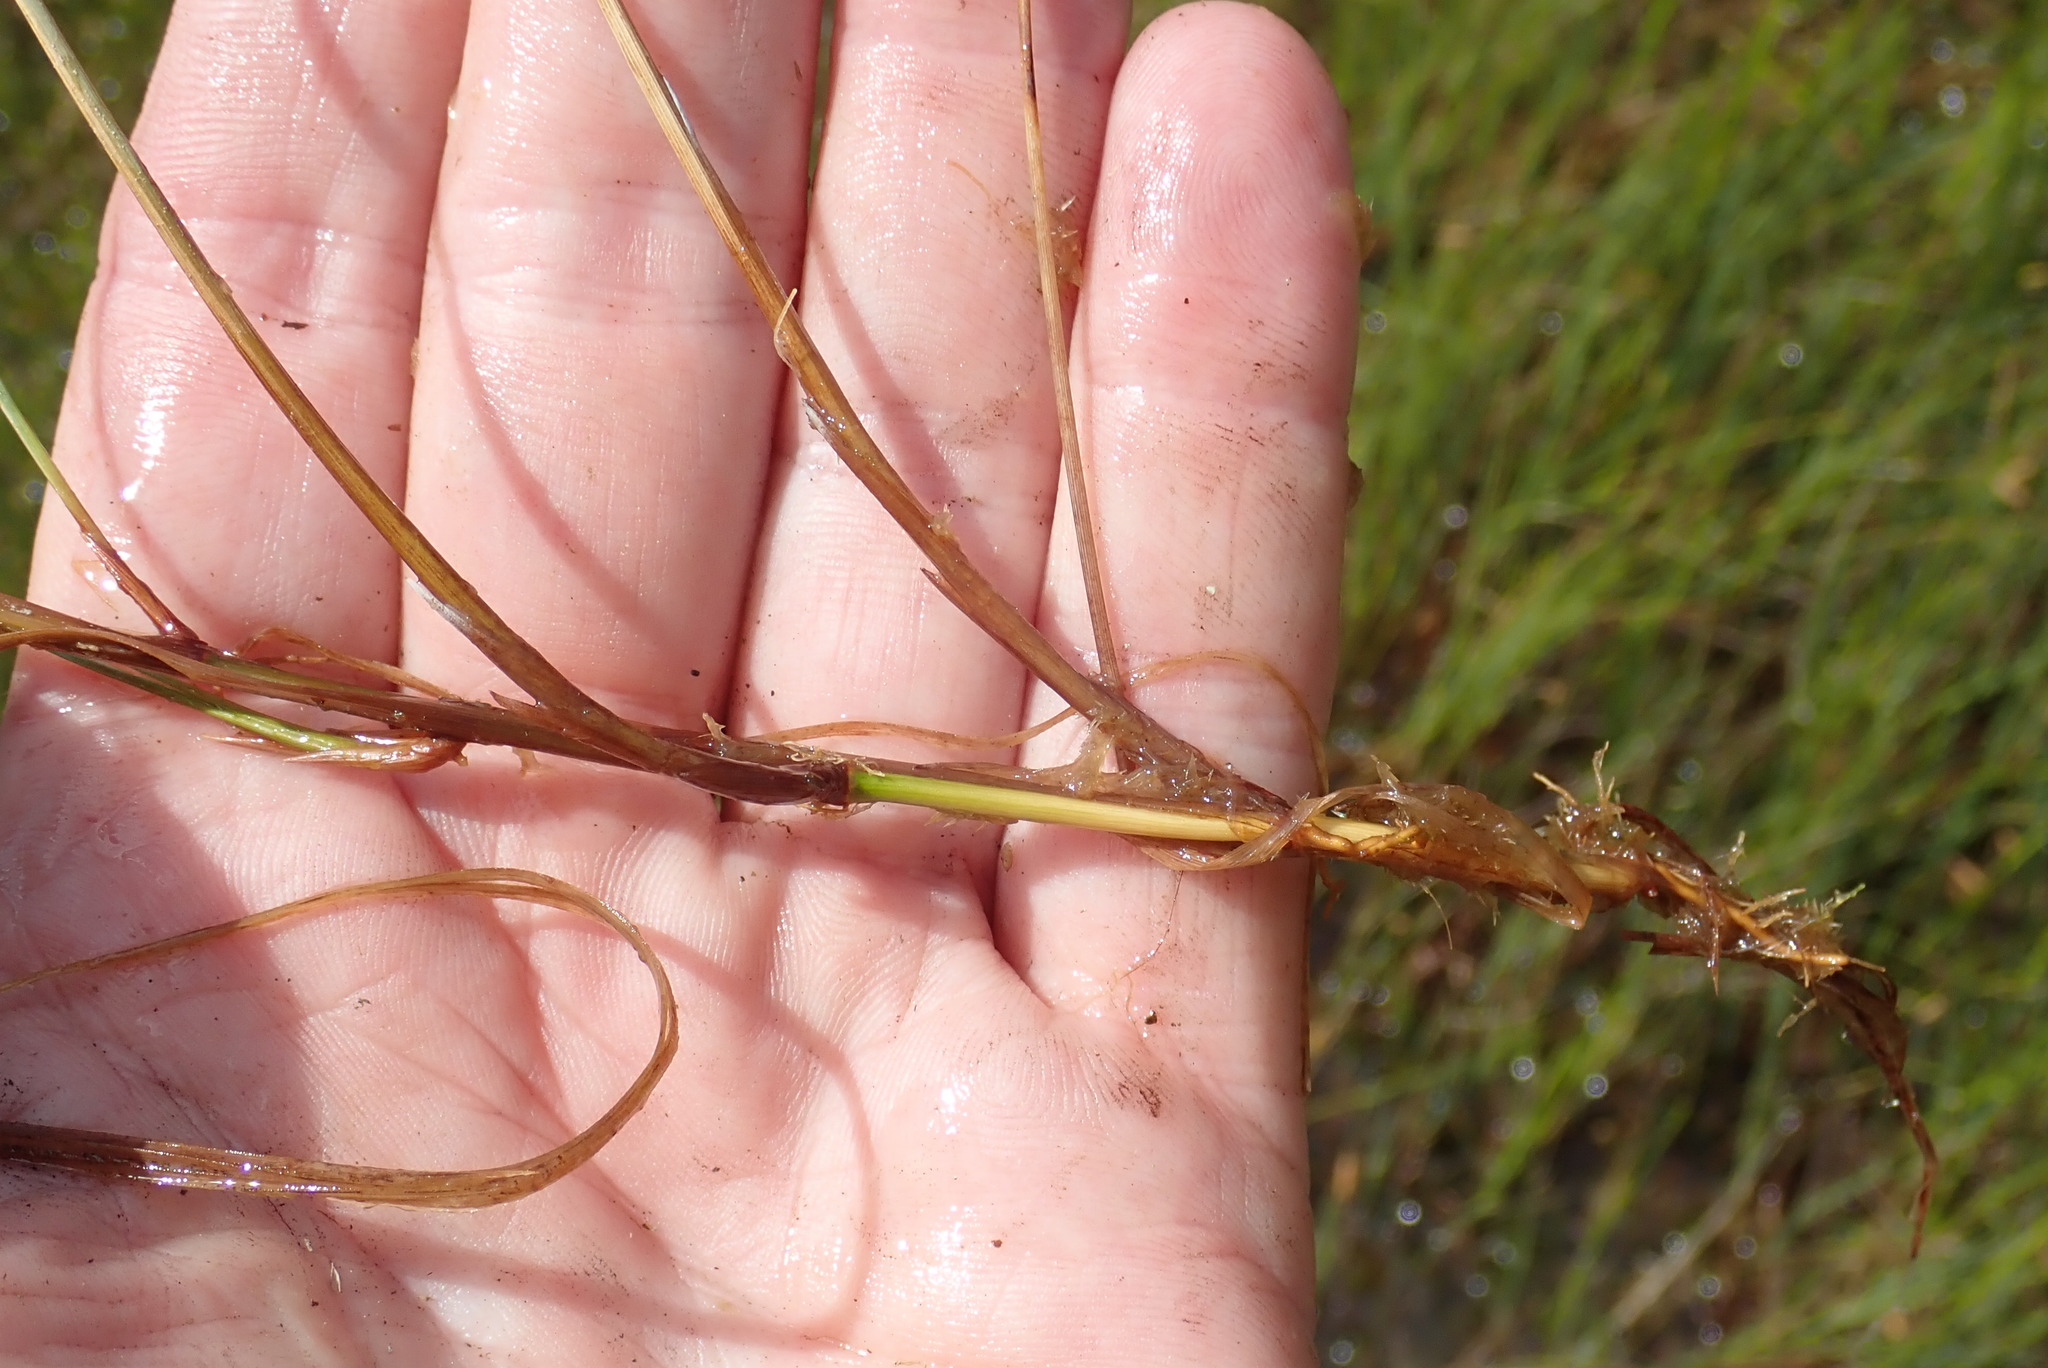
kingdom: Plantae
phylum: Tracheophyta
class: Liliopsida
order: Poales
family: Cyperaceae
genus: Carex
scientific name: Carex limosa
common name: Bog sedge
